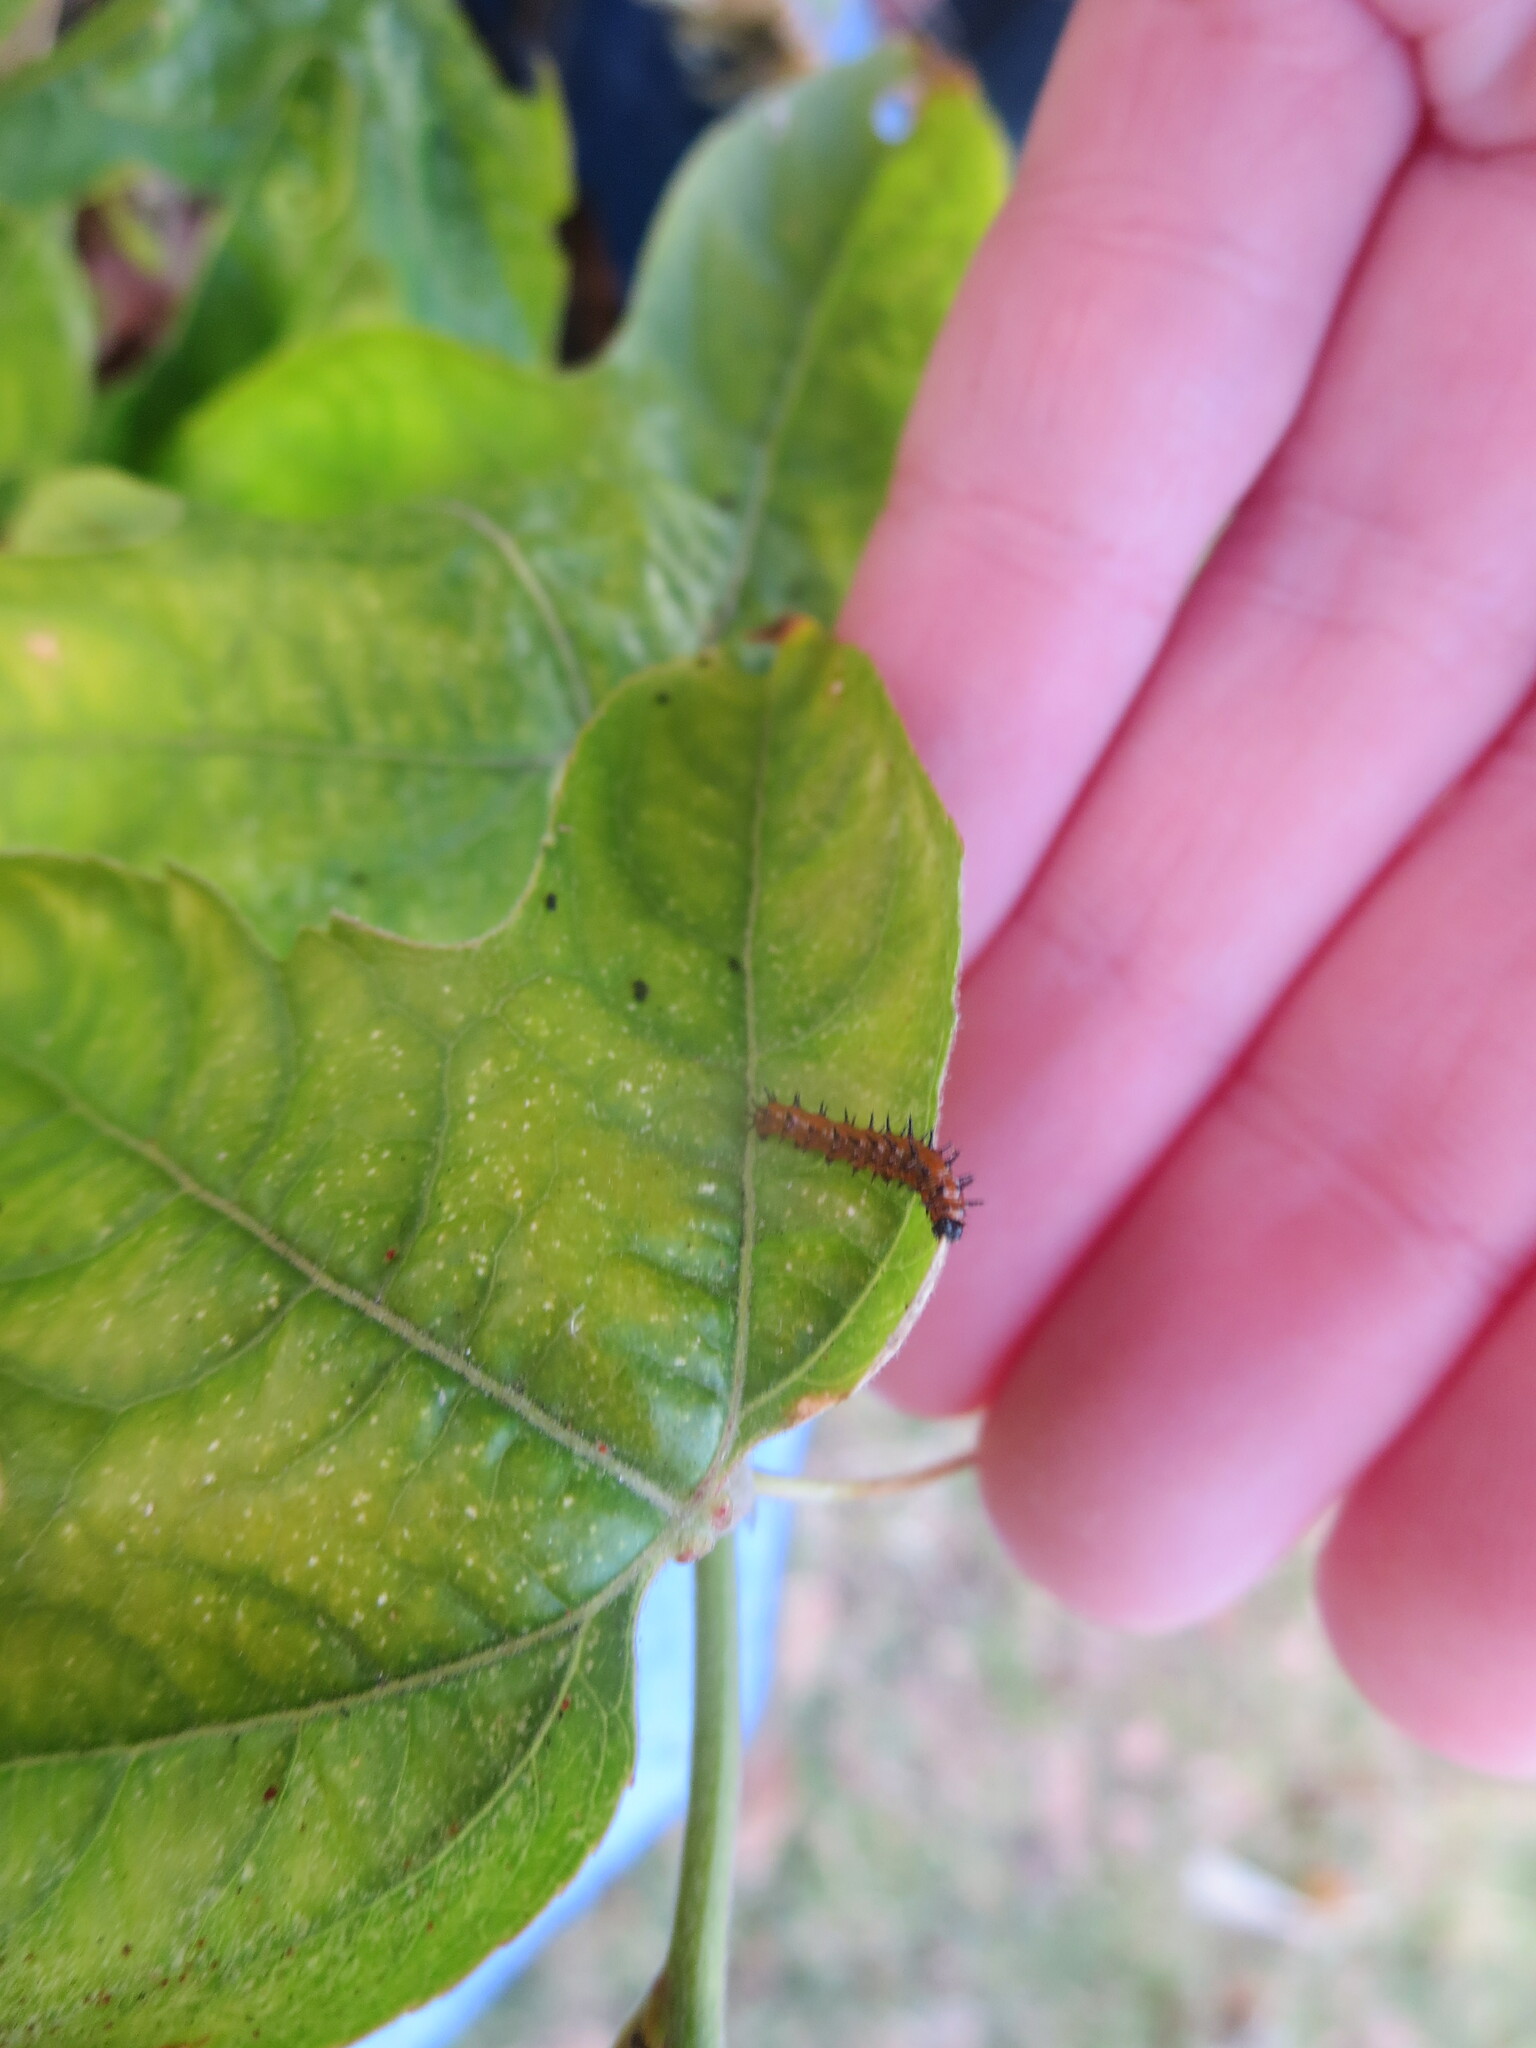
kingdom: Animalia
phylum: Arthropoda
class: Insecta
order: Lepidoptera
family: Nymphalidae
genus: Dione
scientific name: Dione vanillae
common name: Gulf fritillary
